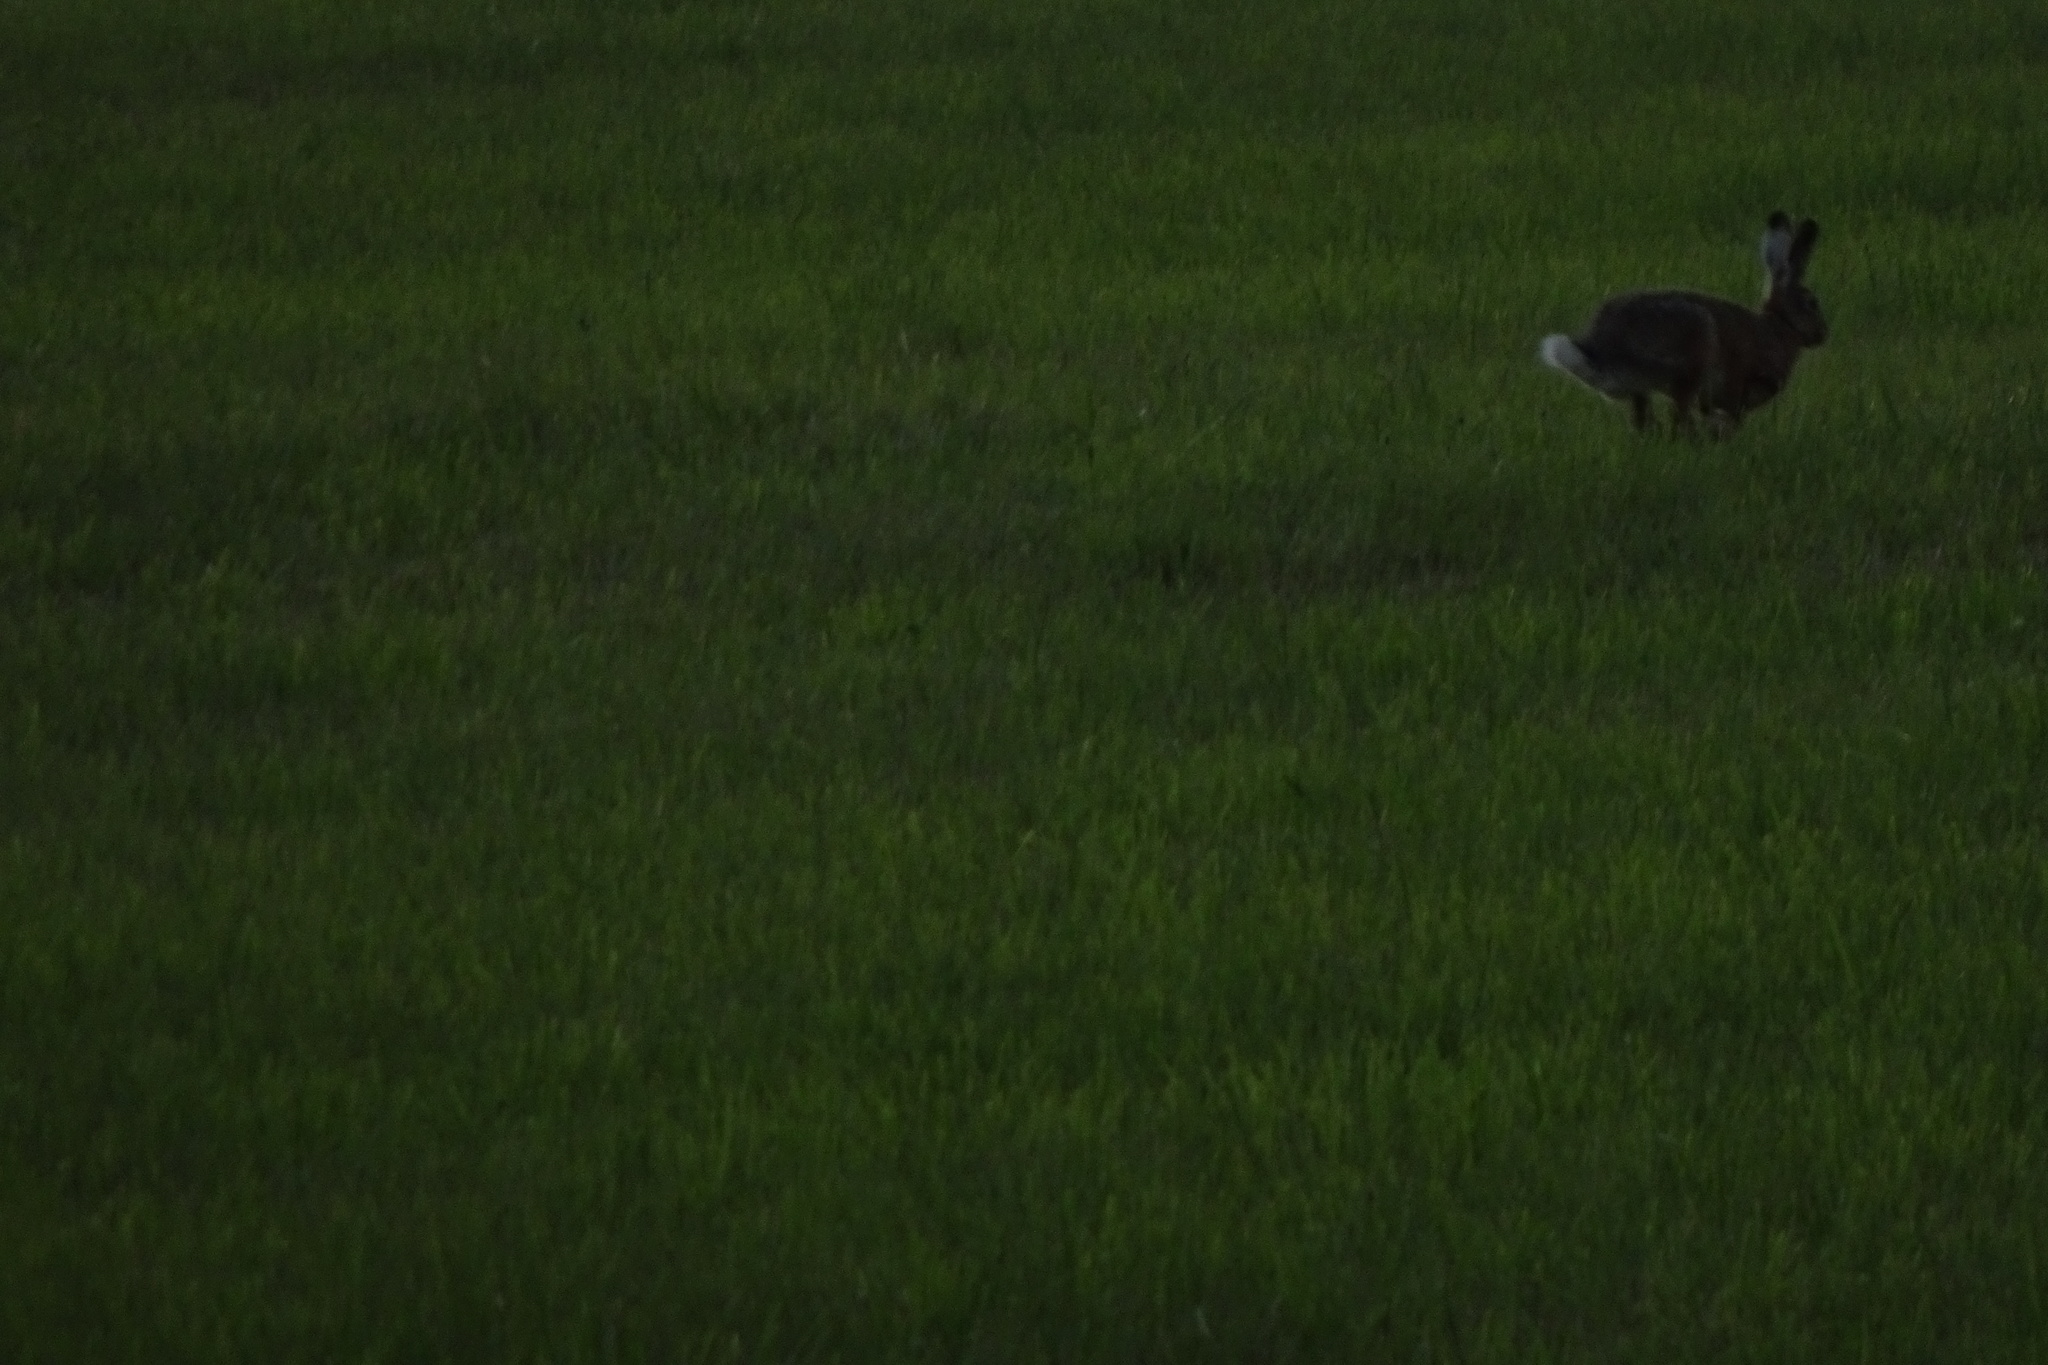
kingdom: Animalia
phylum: Chordata
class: Mammalia
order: Lagomorpha
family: Leporidae
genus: Lepus
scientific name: Lepus europaeus
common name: European hare
